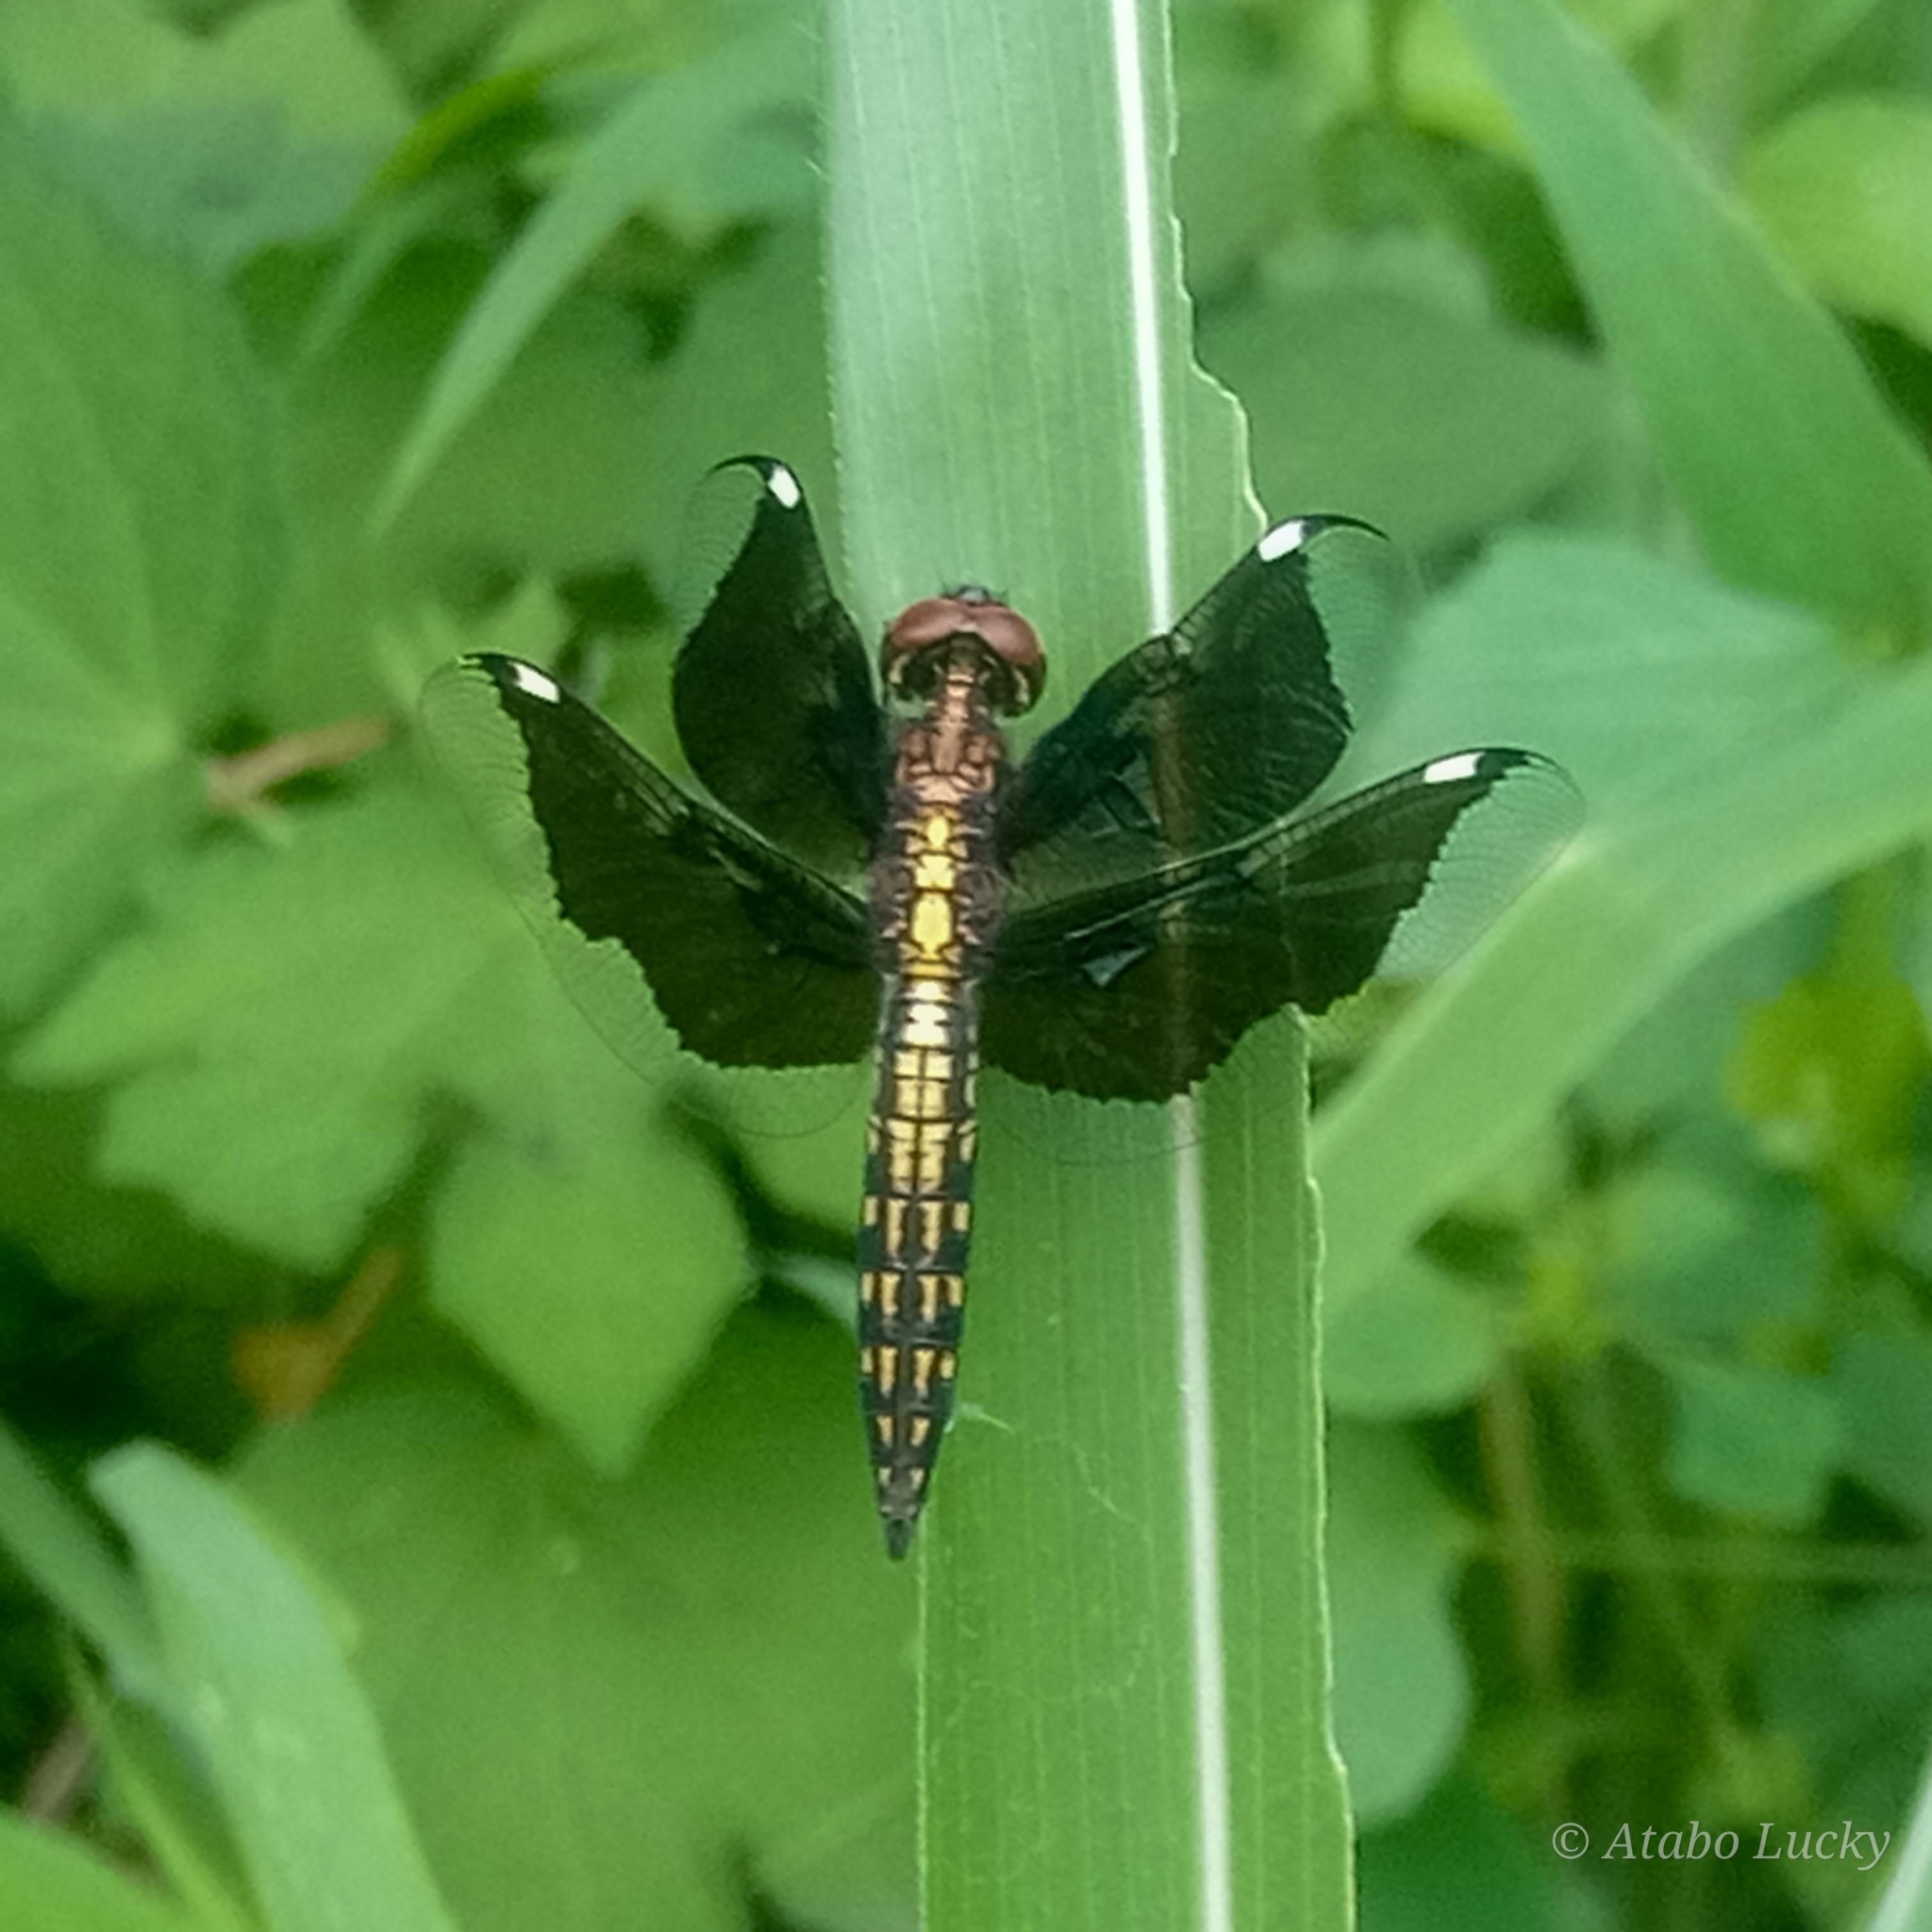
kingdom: Animalia
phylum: Arthropoda
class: Insecta
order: Odonata
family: Libellulidae
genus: Palpopleura
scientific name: Palpopleura lucia
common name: Lucia widow
